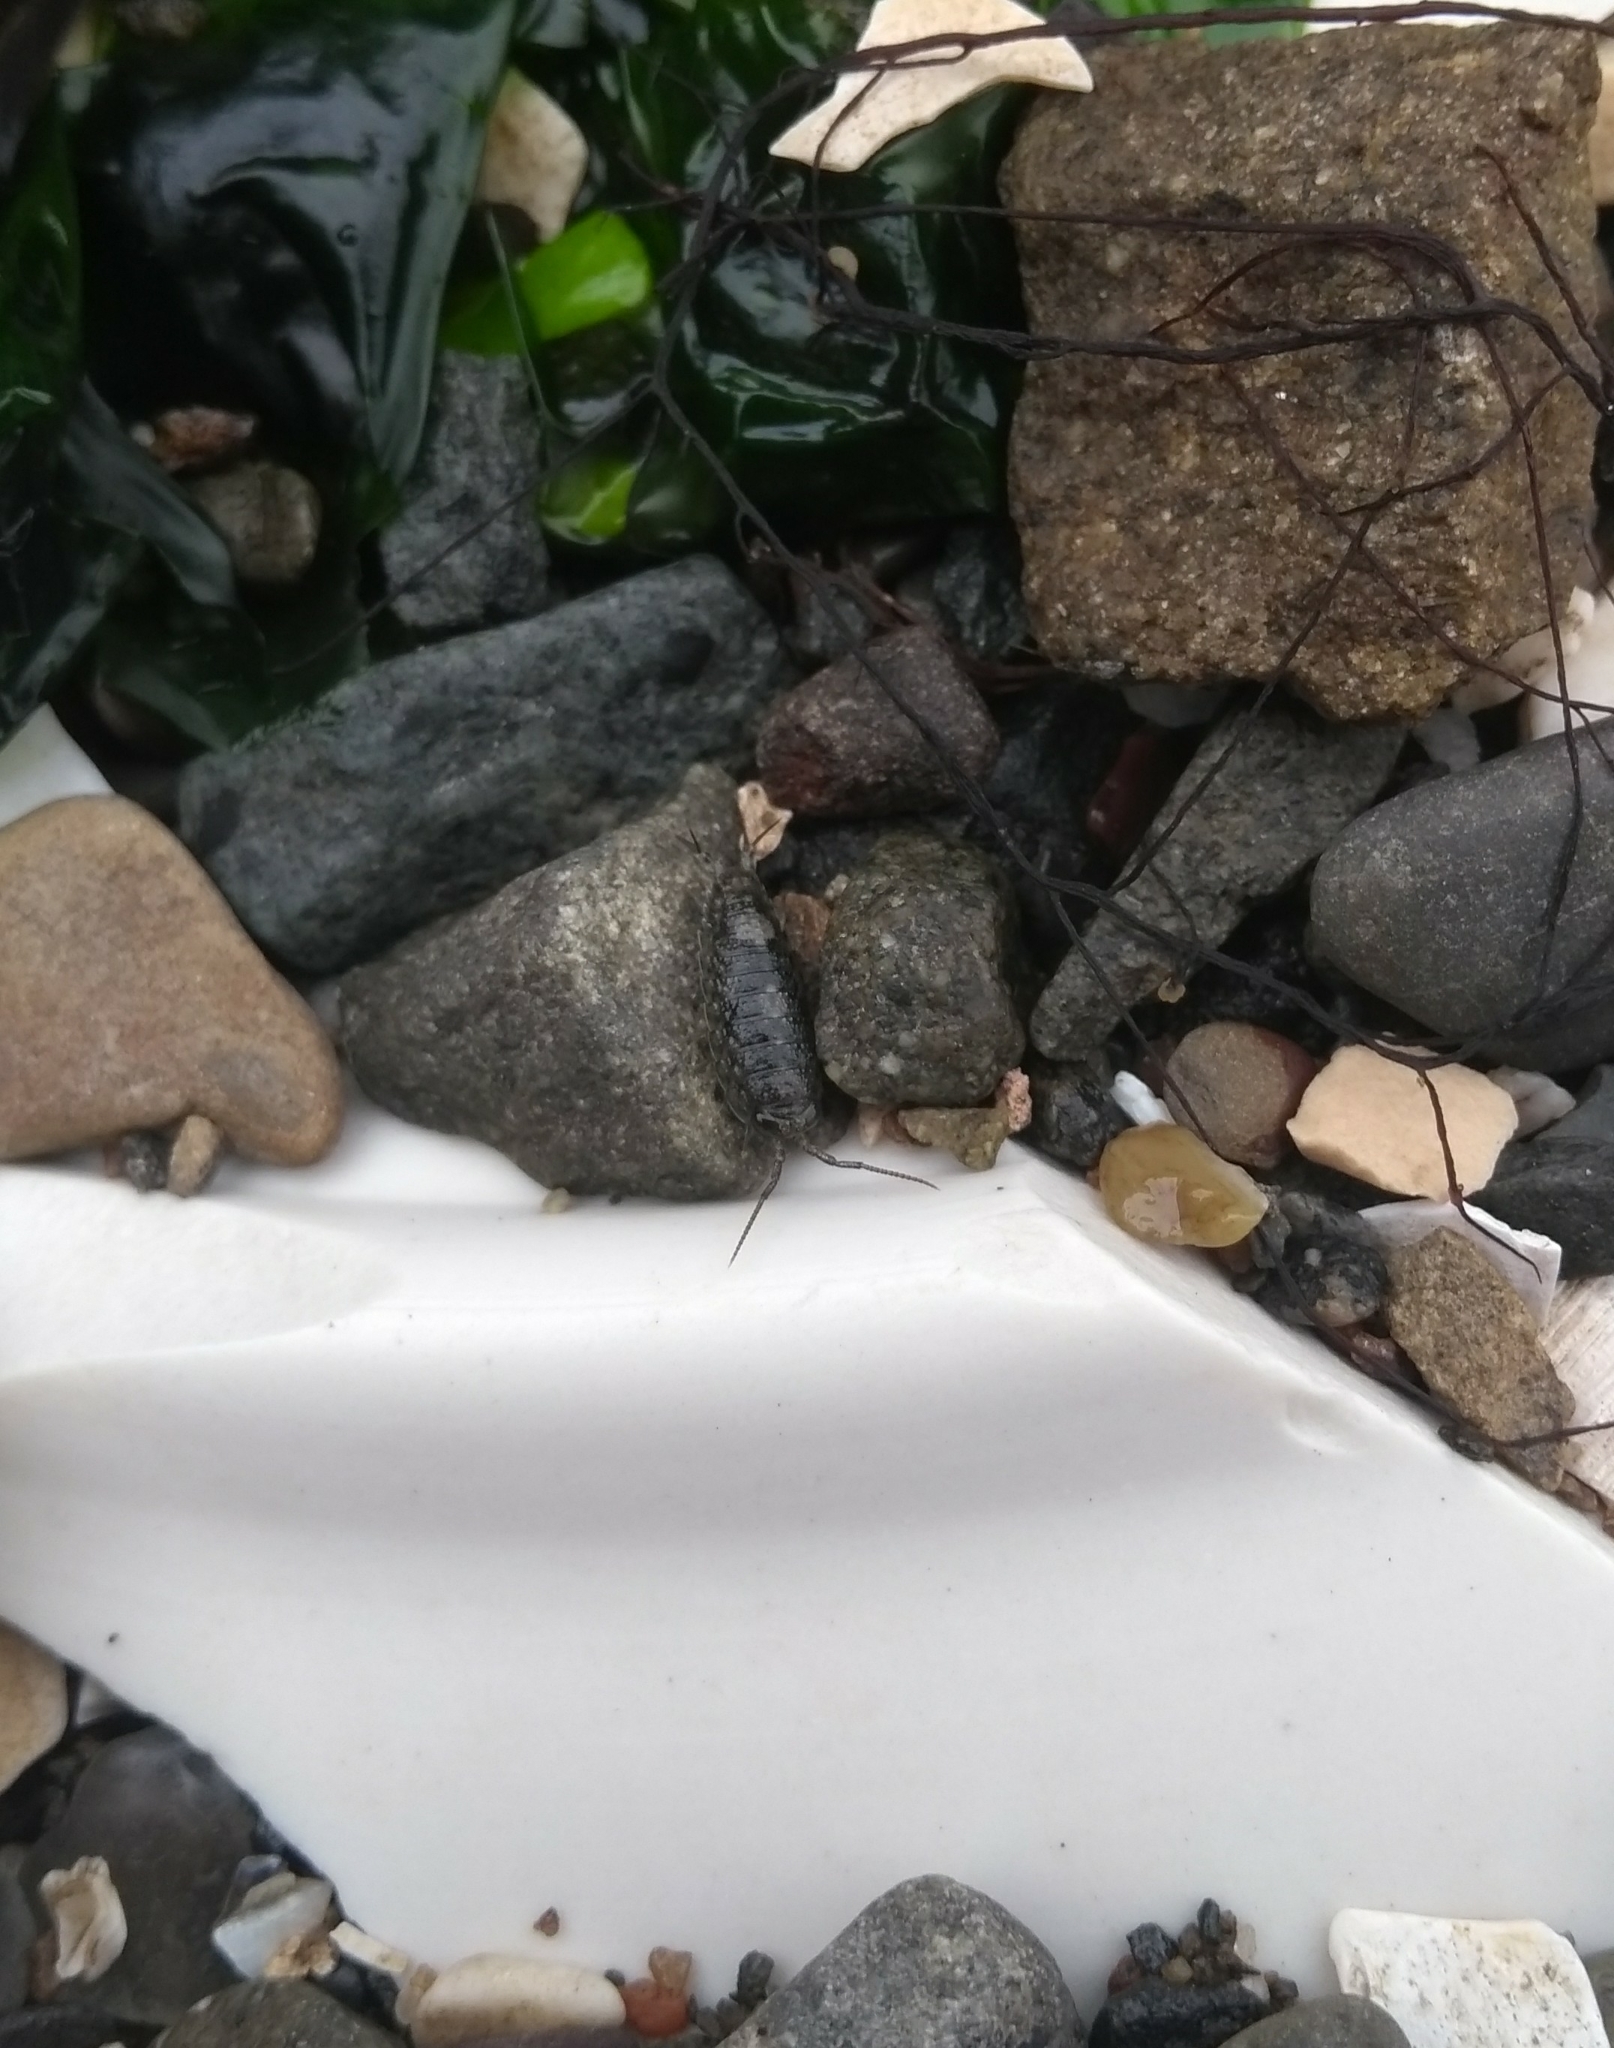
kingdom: Animalia
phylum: Arthropoda
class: Malacostraca
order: Isopoda
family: Ligiidae
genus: Ligia
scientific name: Ligia occidentalis
